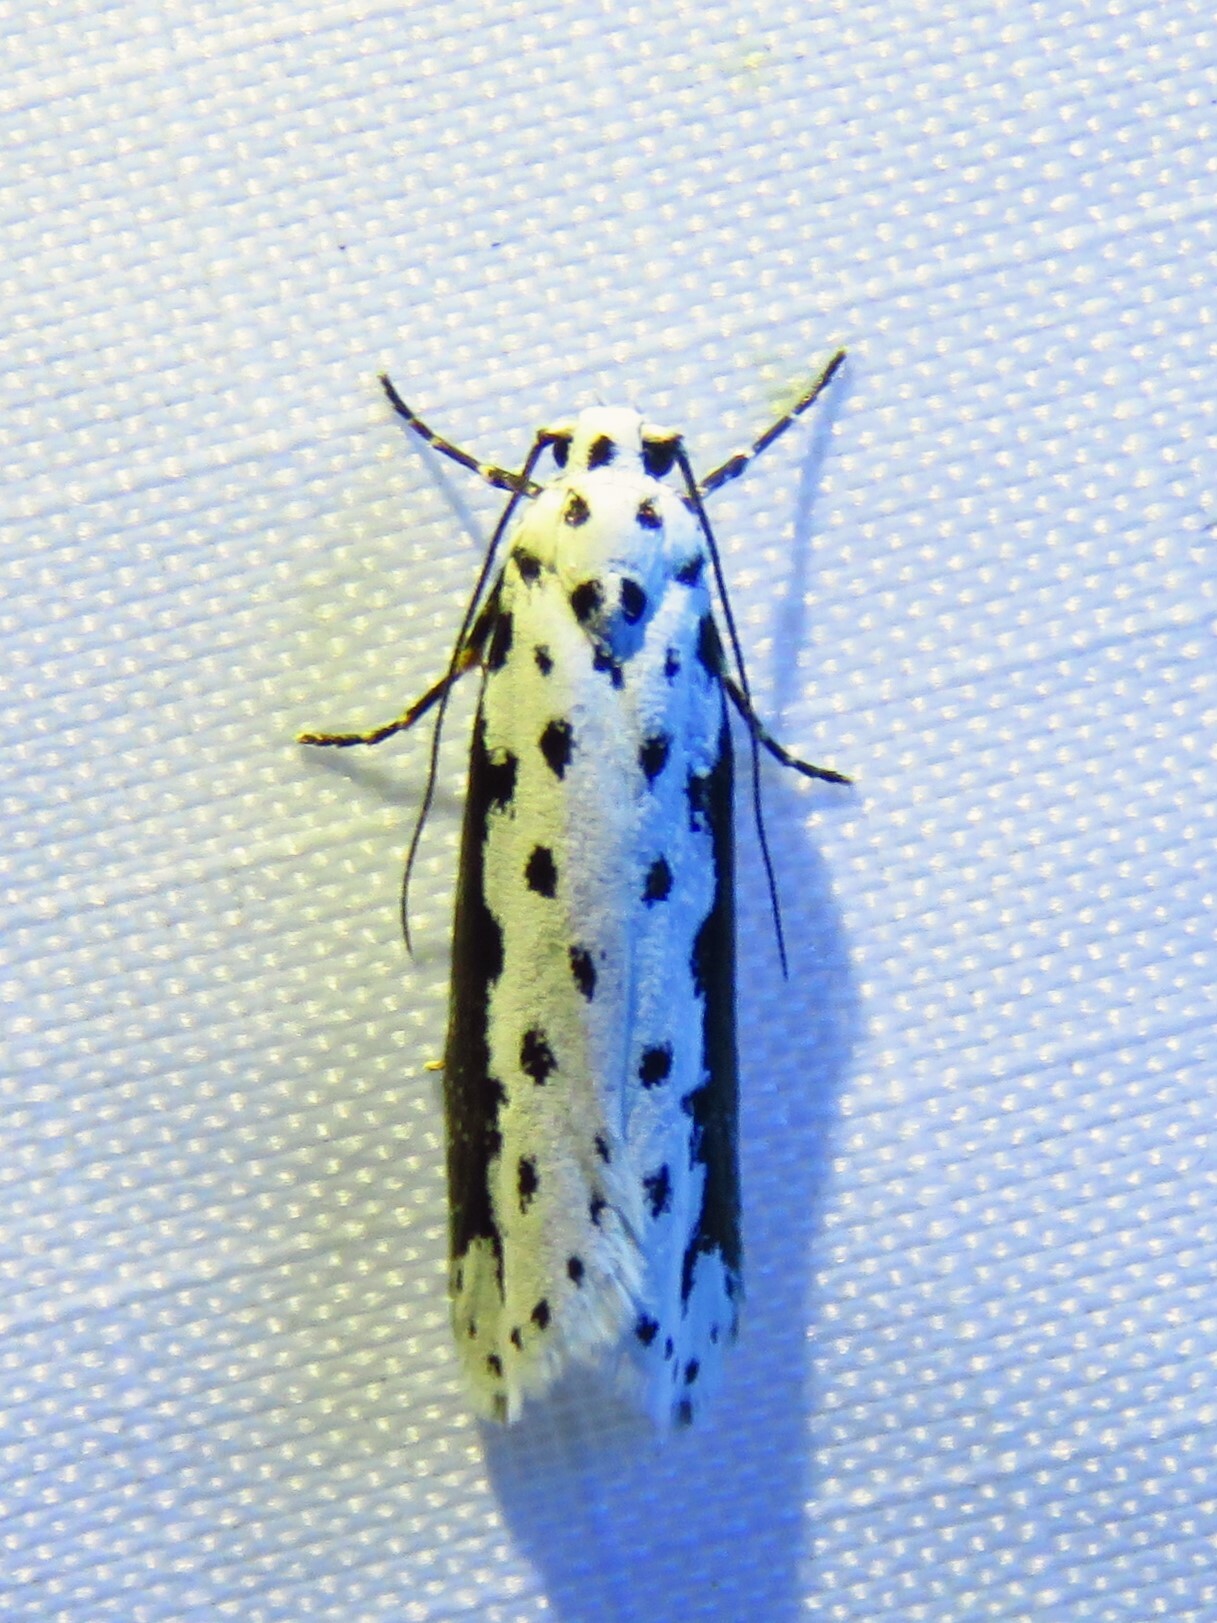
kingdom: Animalia
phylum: Arthropoda
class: Insecta
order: Lepidoptera
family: Ethmiidae
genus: Ethmia
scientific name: Ethmia hagenella
